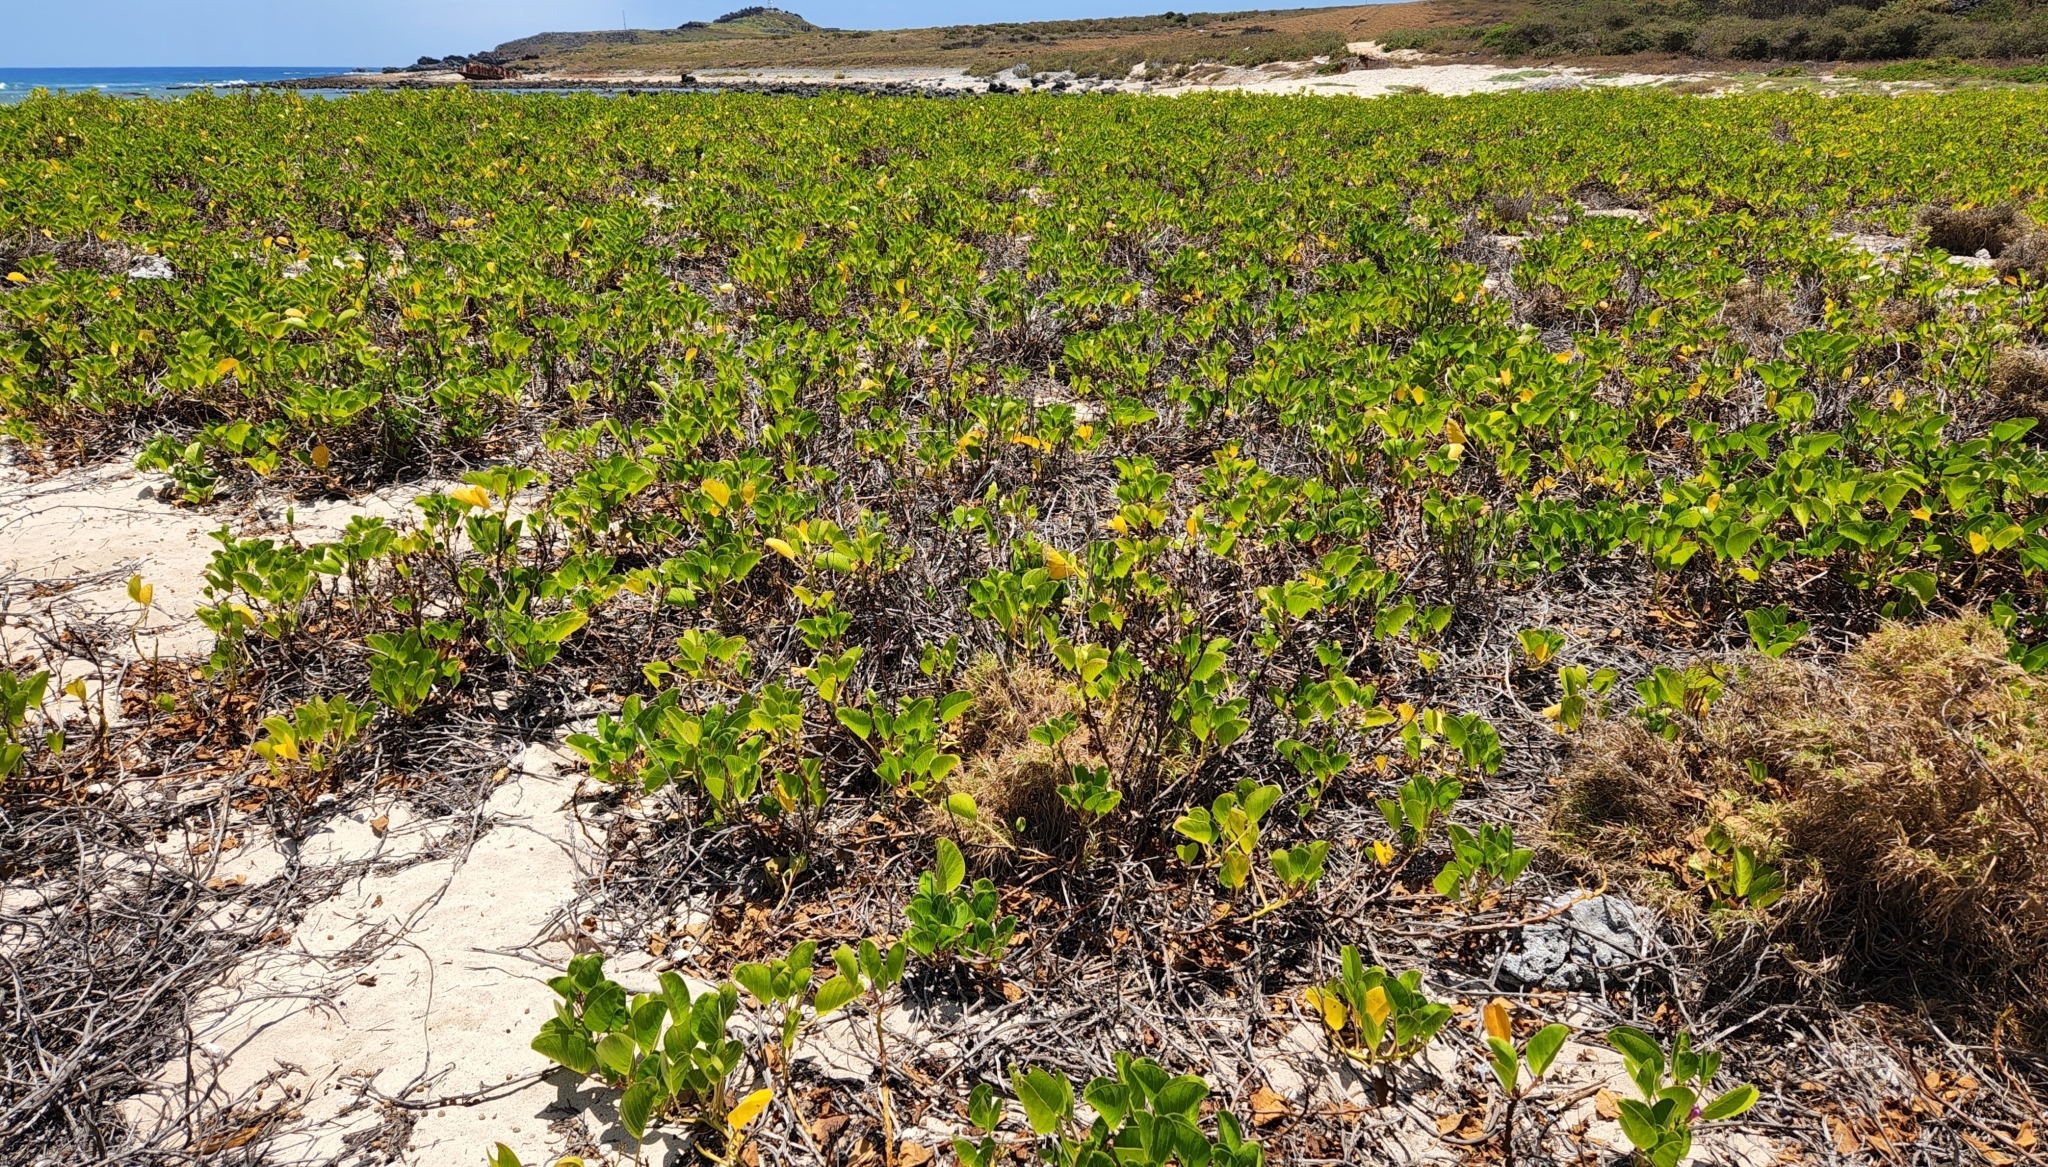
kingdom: Plantae
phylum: Tracheophyta
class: Magnoliopsida
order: Solanales
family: Convolvulaceae
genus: Ipomoea
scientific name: Ipomoea pes-caprae
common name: Beach morning glory
